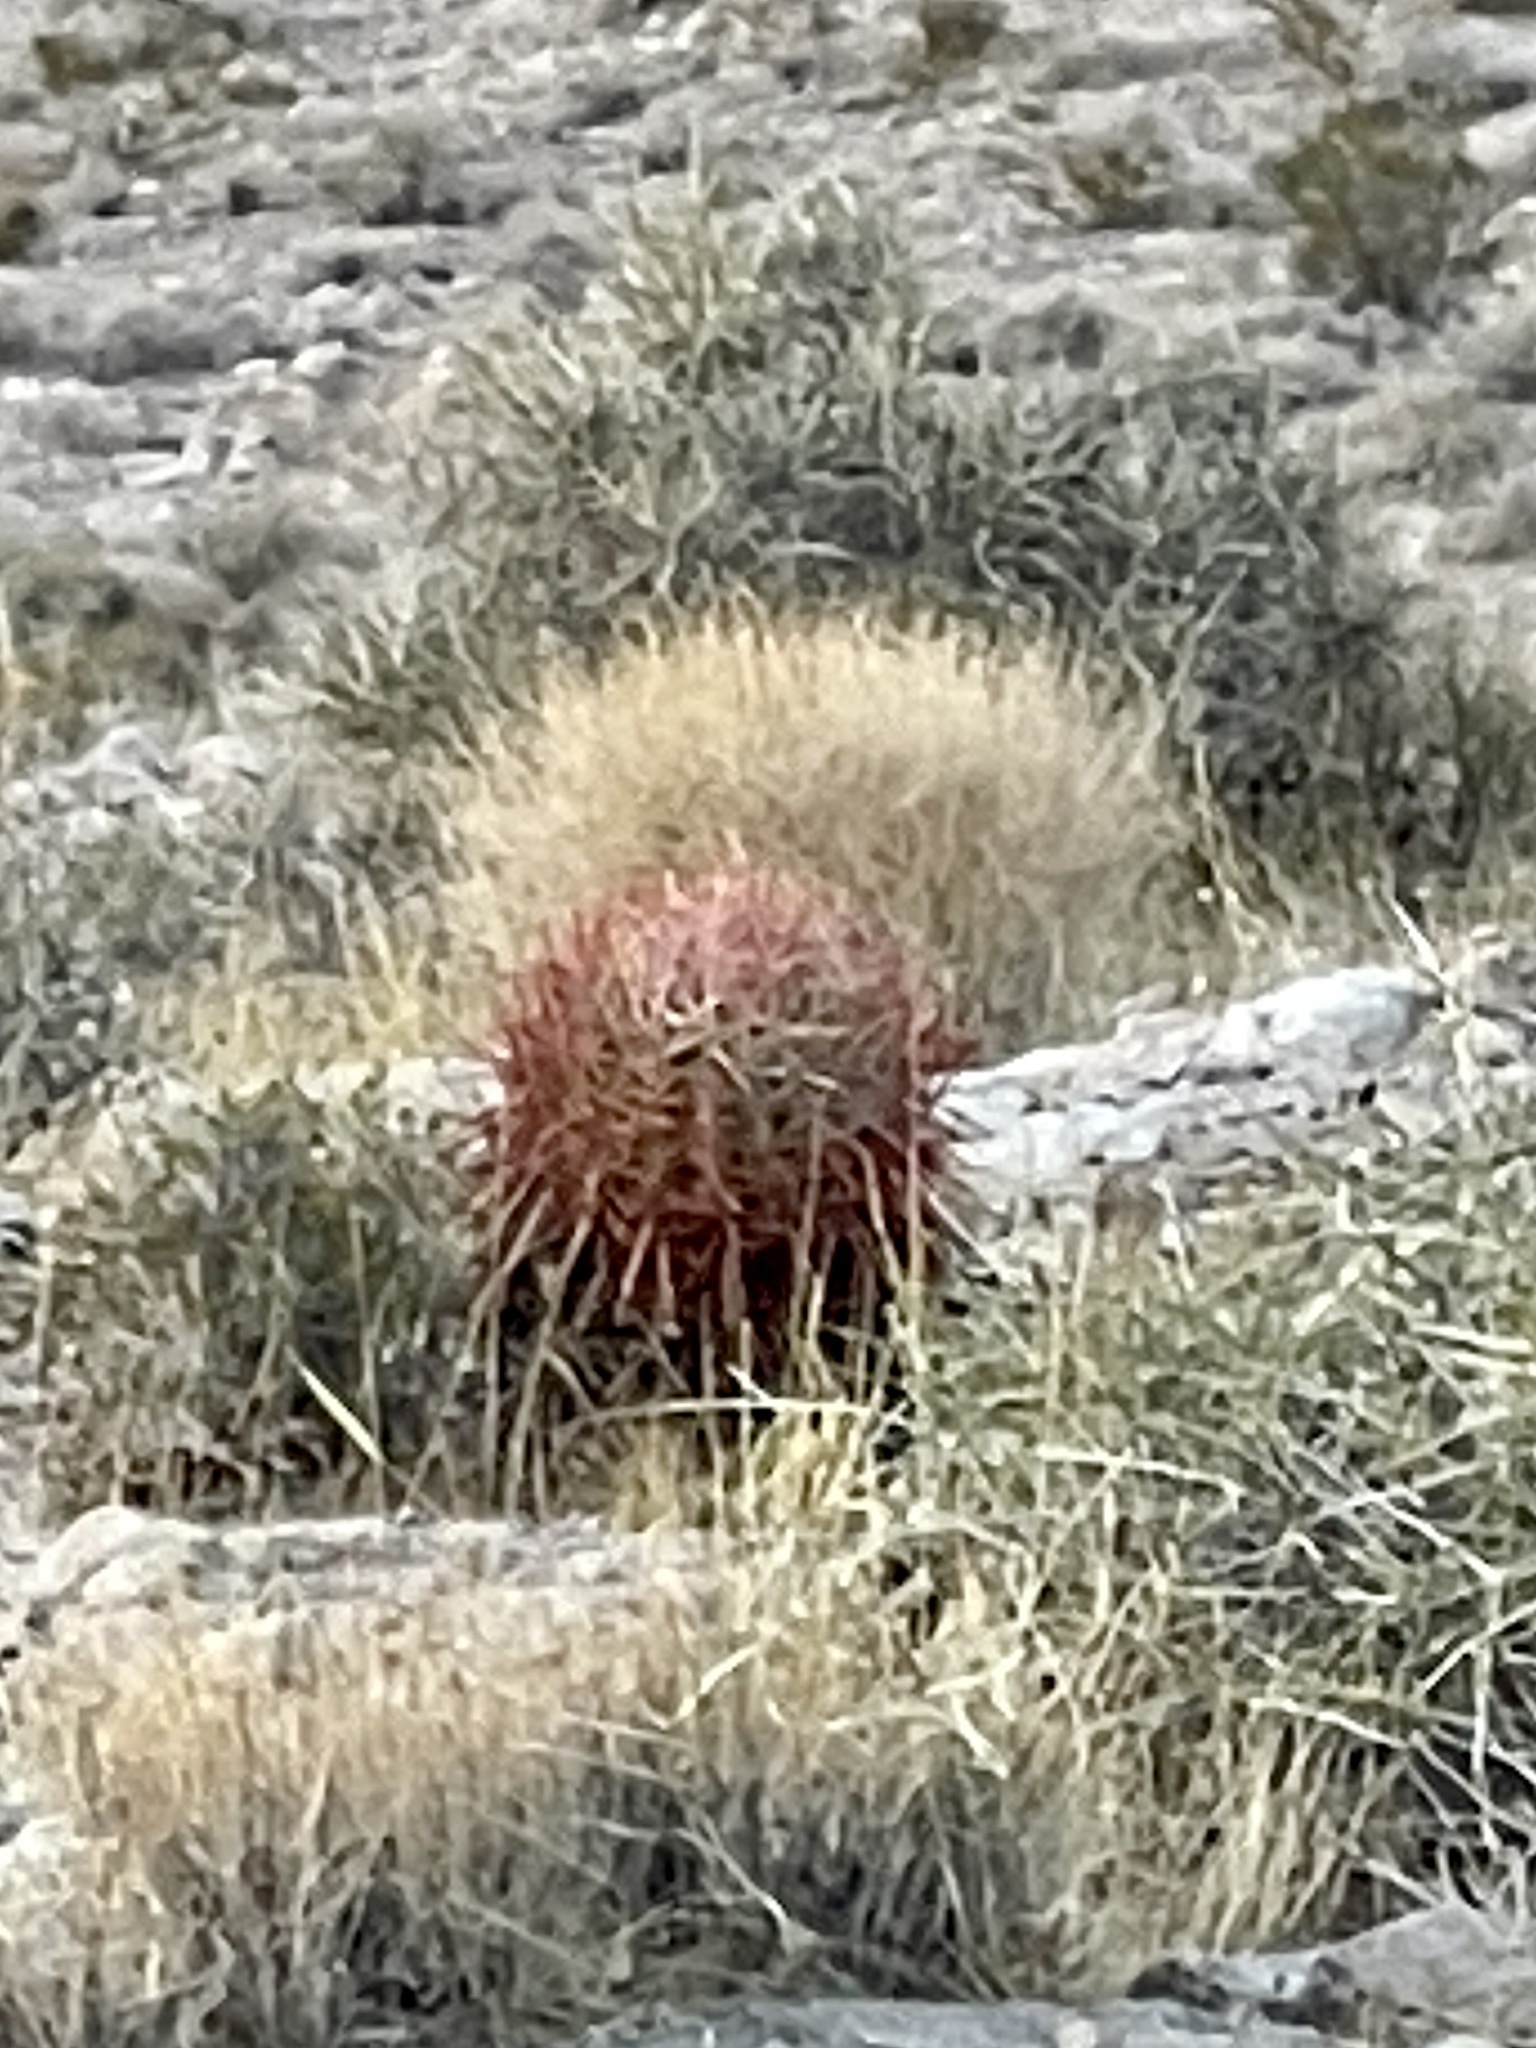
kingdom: Plantae
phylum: Tracheophyta
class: Magnoliopsida
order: Caryophyllales
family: Cactaceae
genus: Ferocactus
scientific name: Ferocactus cylindraceus
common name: California barrel cactus
